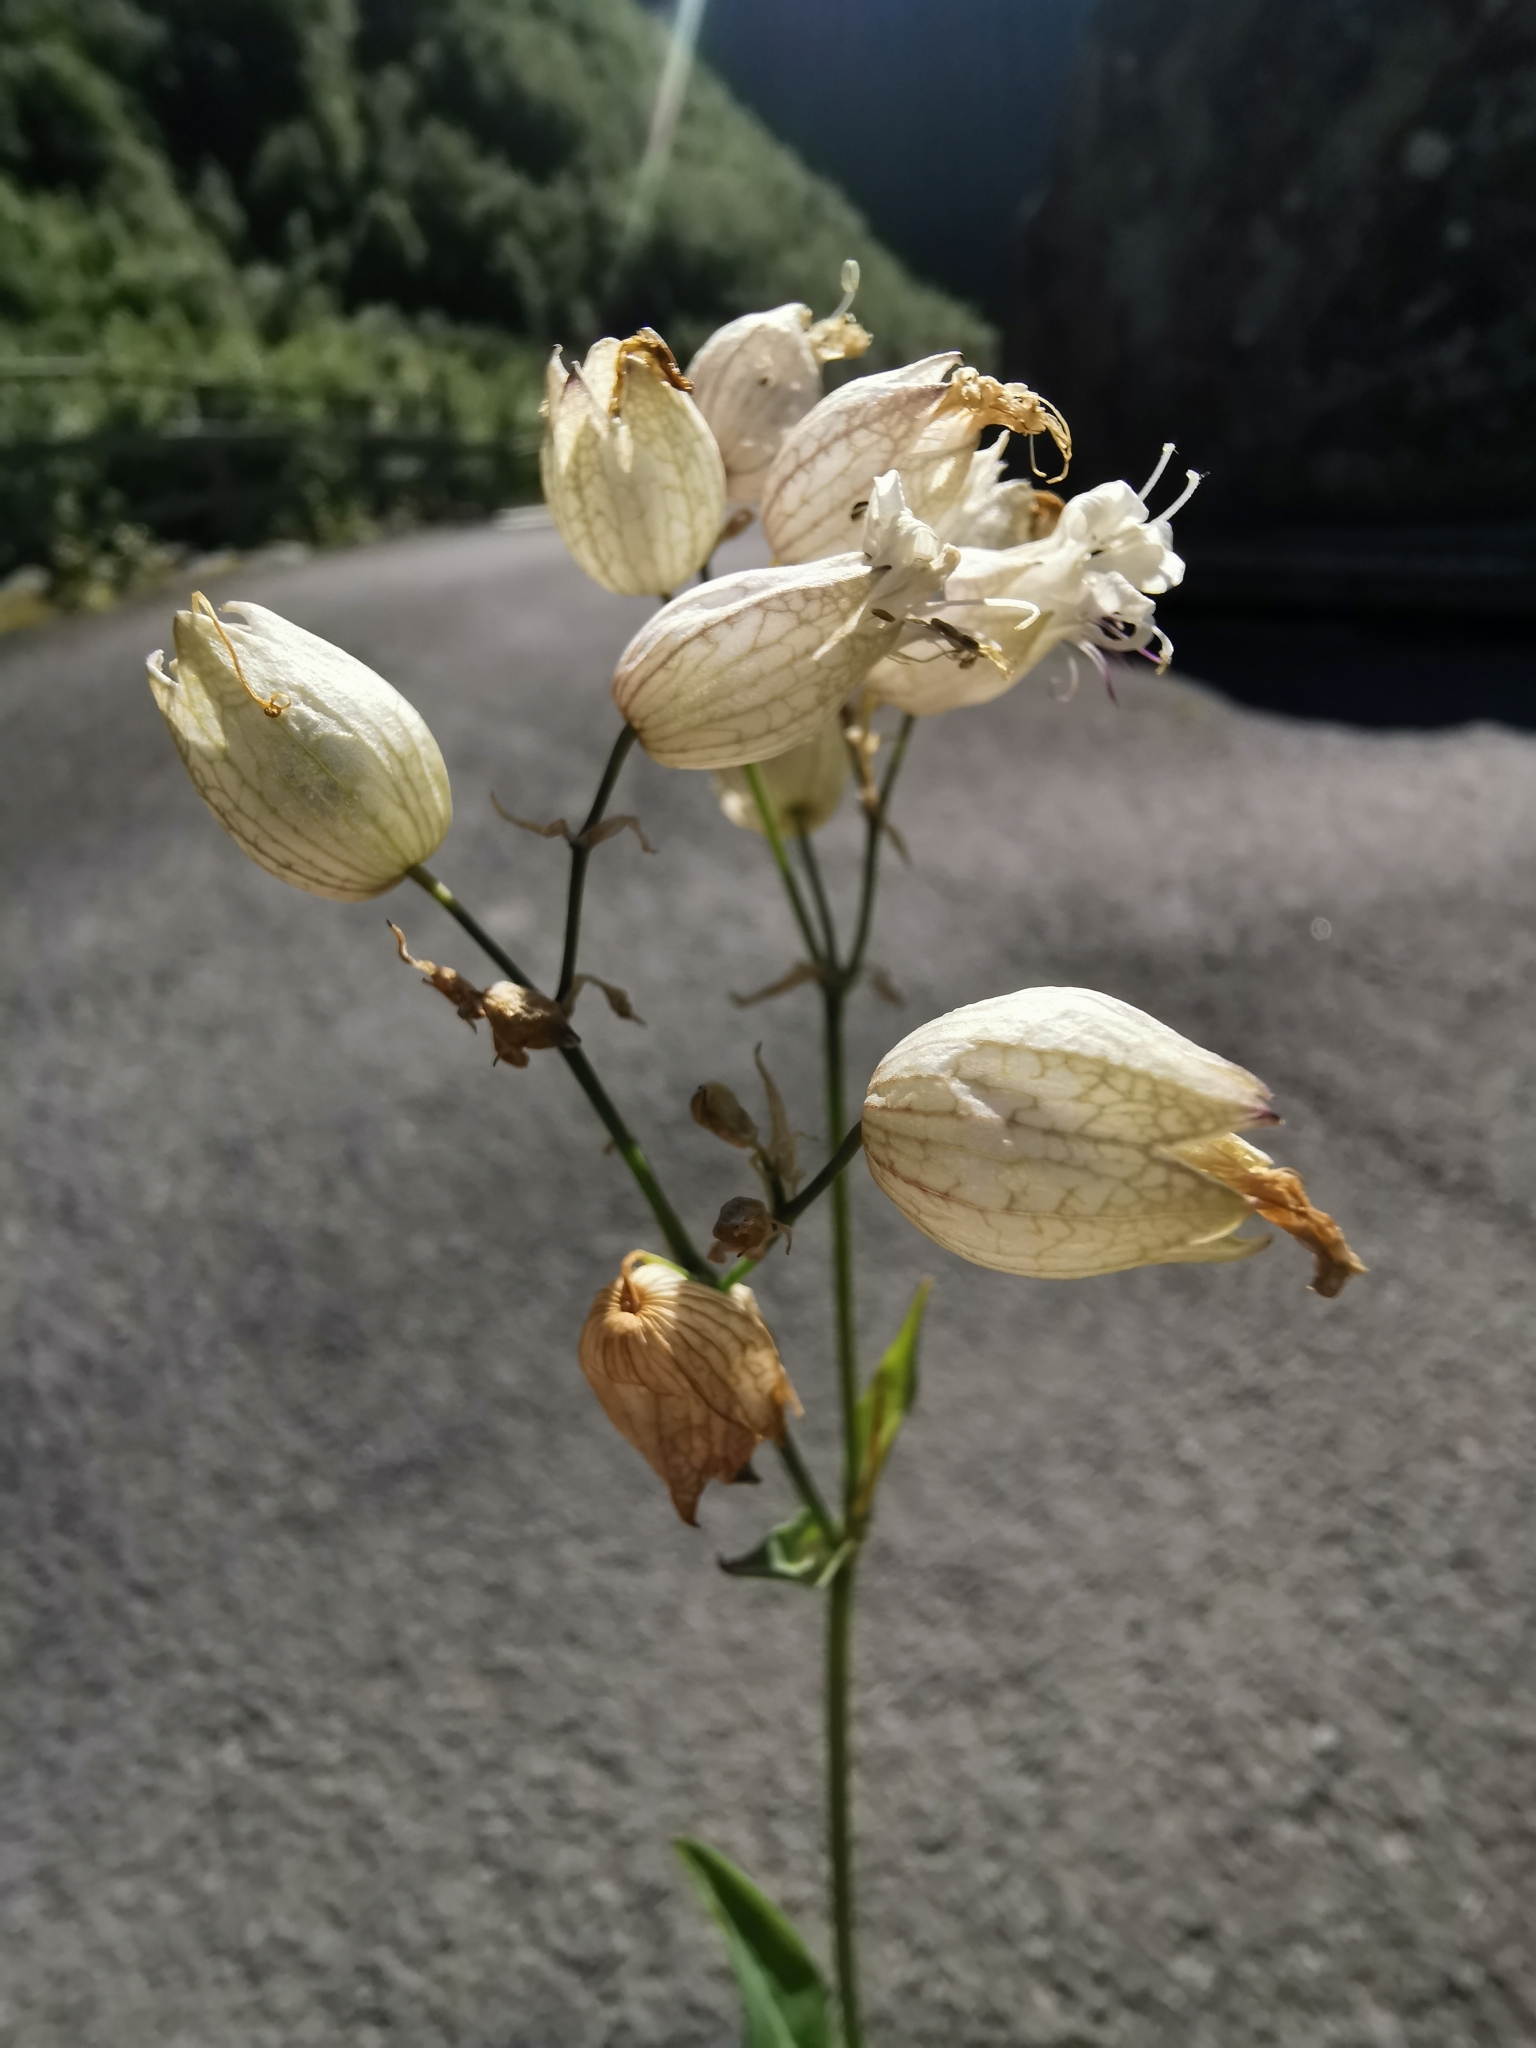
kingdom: Plantae
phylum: Tracheophyta
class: Magnoliopsida
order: Caryophyllales
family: Caryophyllaceae
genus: Silene
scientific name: Silene vulgaris
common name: Bladder campion
